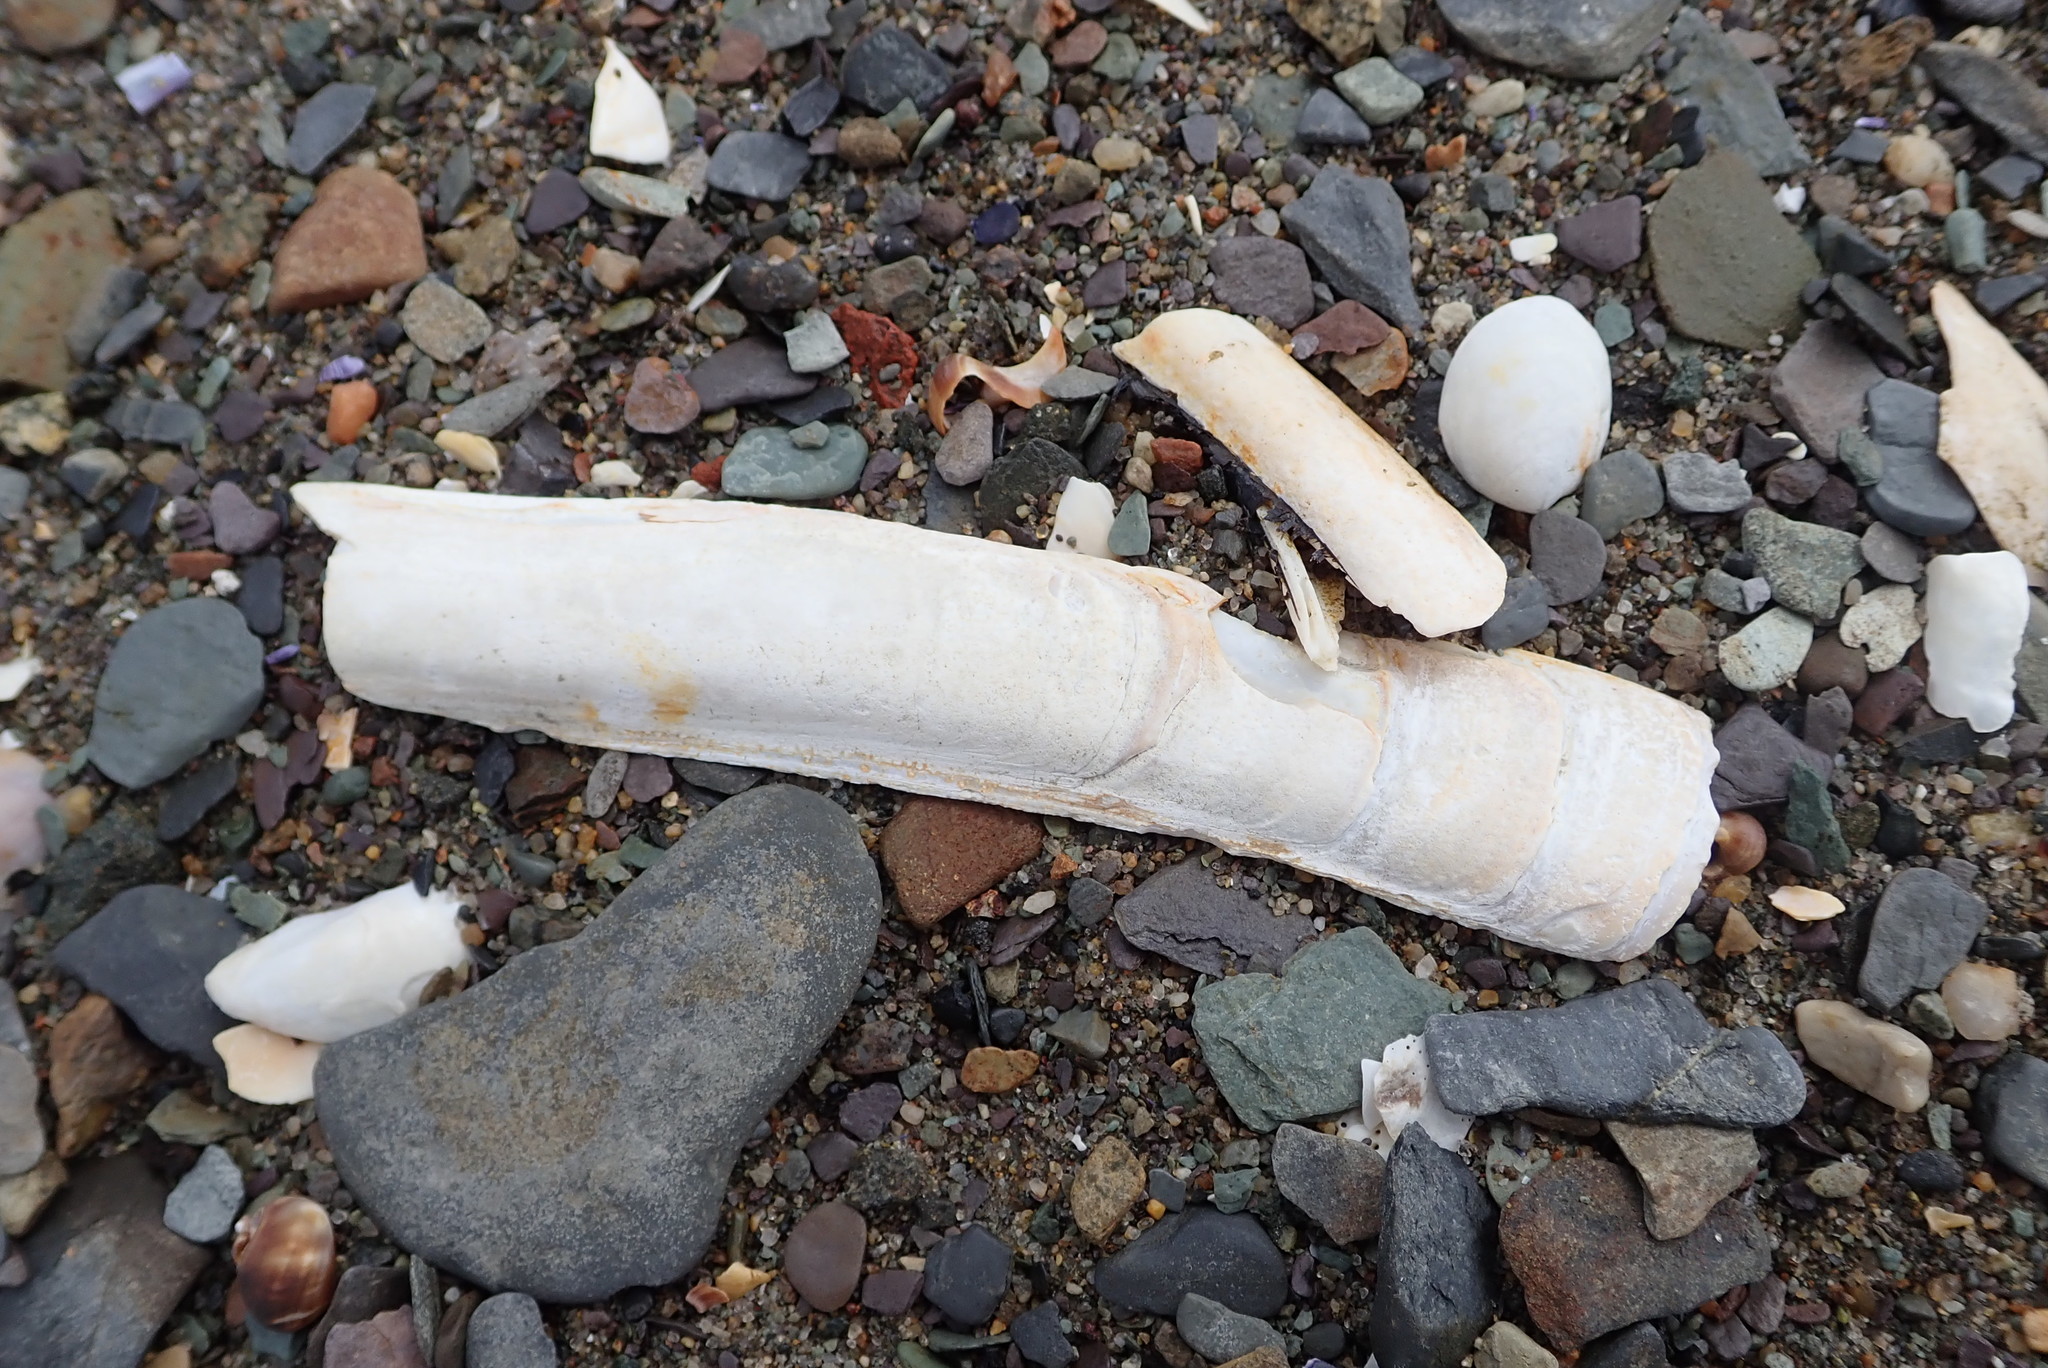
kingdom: Animalia
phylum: Mollusca
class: Bivalvia
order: Adapedonta
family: Pharidae
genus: Ensis
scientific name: Ensis leei
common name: American jack knife clam
